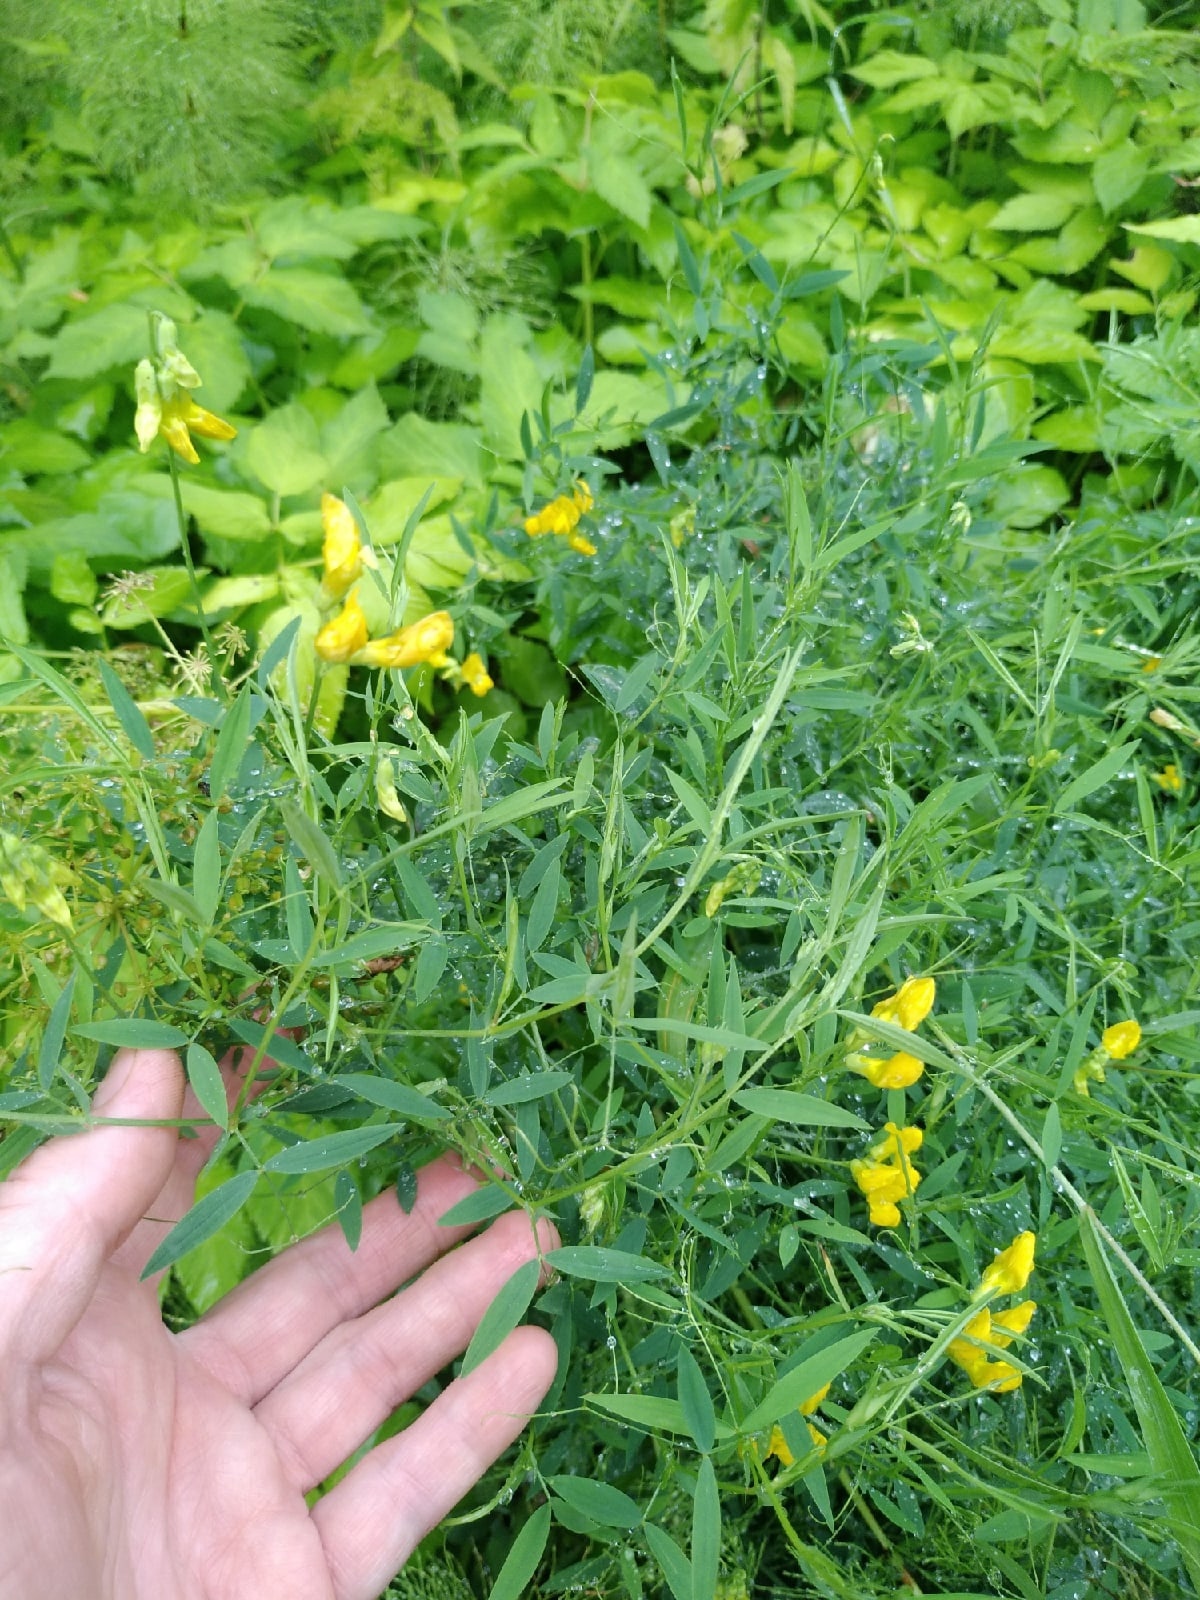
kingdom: Plantae
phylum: Tracheophyta
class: Magnoliopsida
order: Fabales
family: Fabaceae
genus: Lathyrus
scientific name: Lathyrus pratensis
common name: Meadow vetchling
